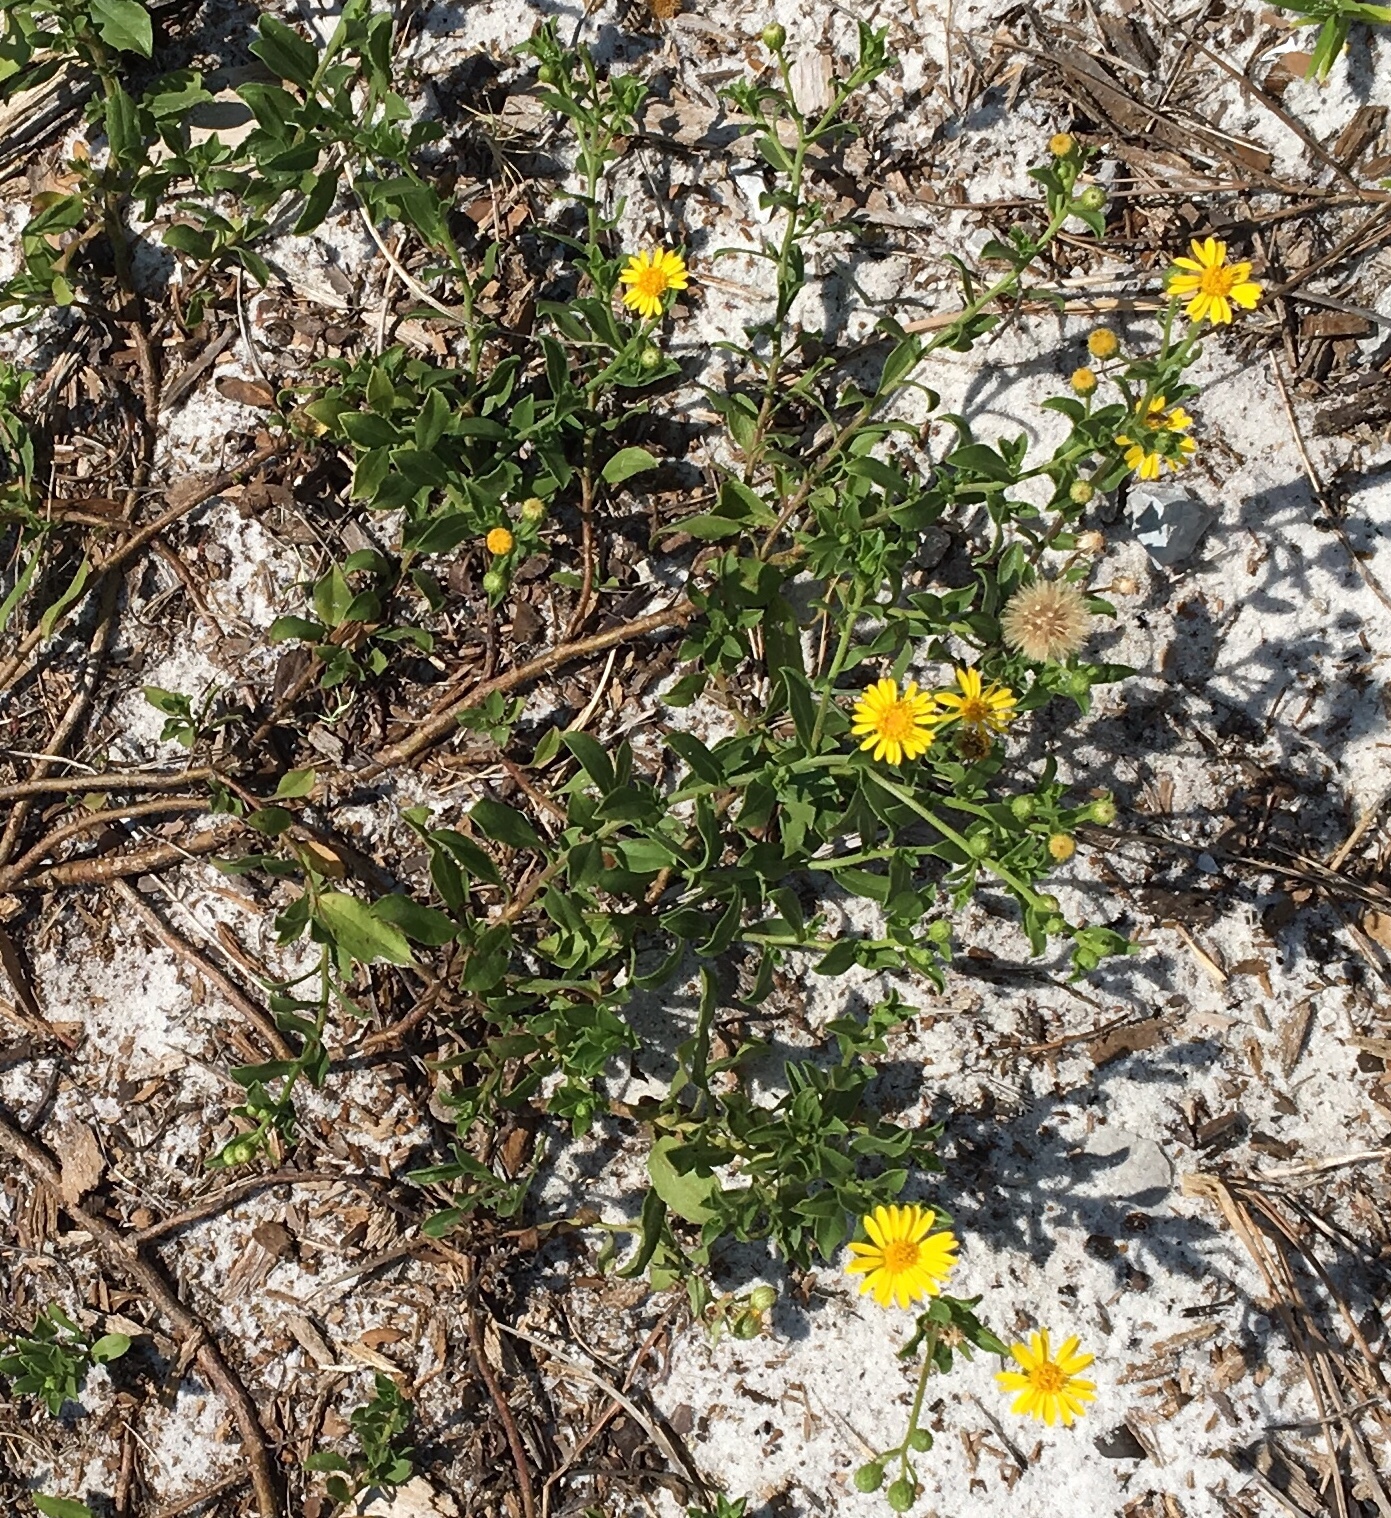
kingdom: Plantae
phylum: Tracheophyta
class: Magnoliopsida
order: Asterales
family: Asteraceae
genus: Heterotheca
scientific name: Heterotheca subaxillaris
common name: Camphorweed
